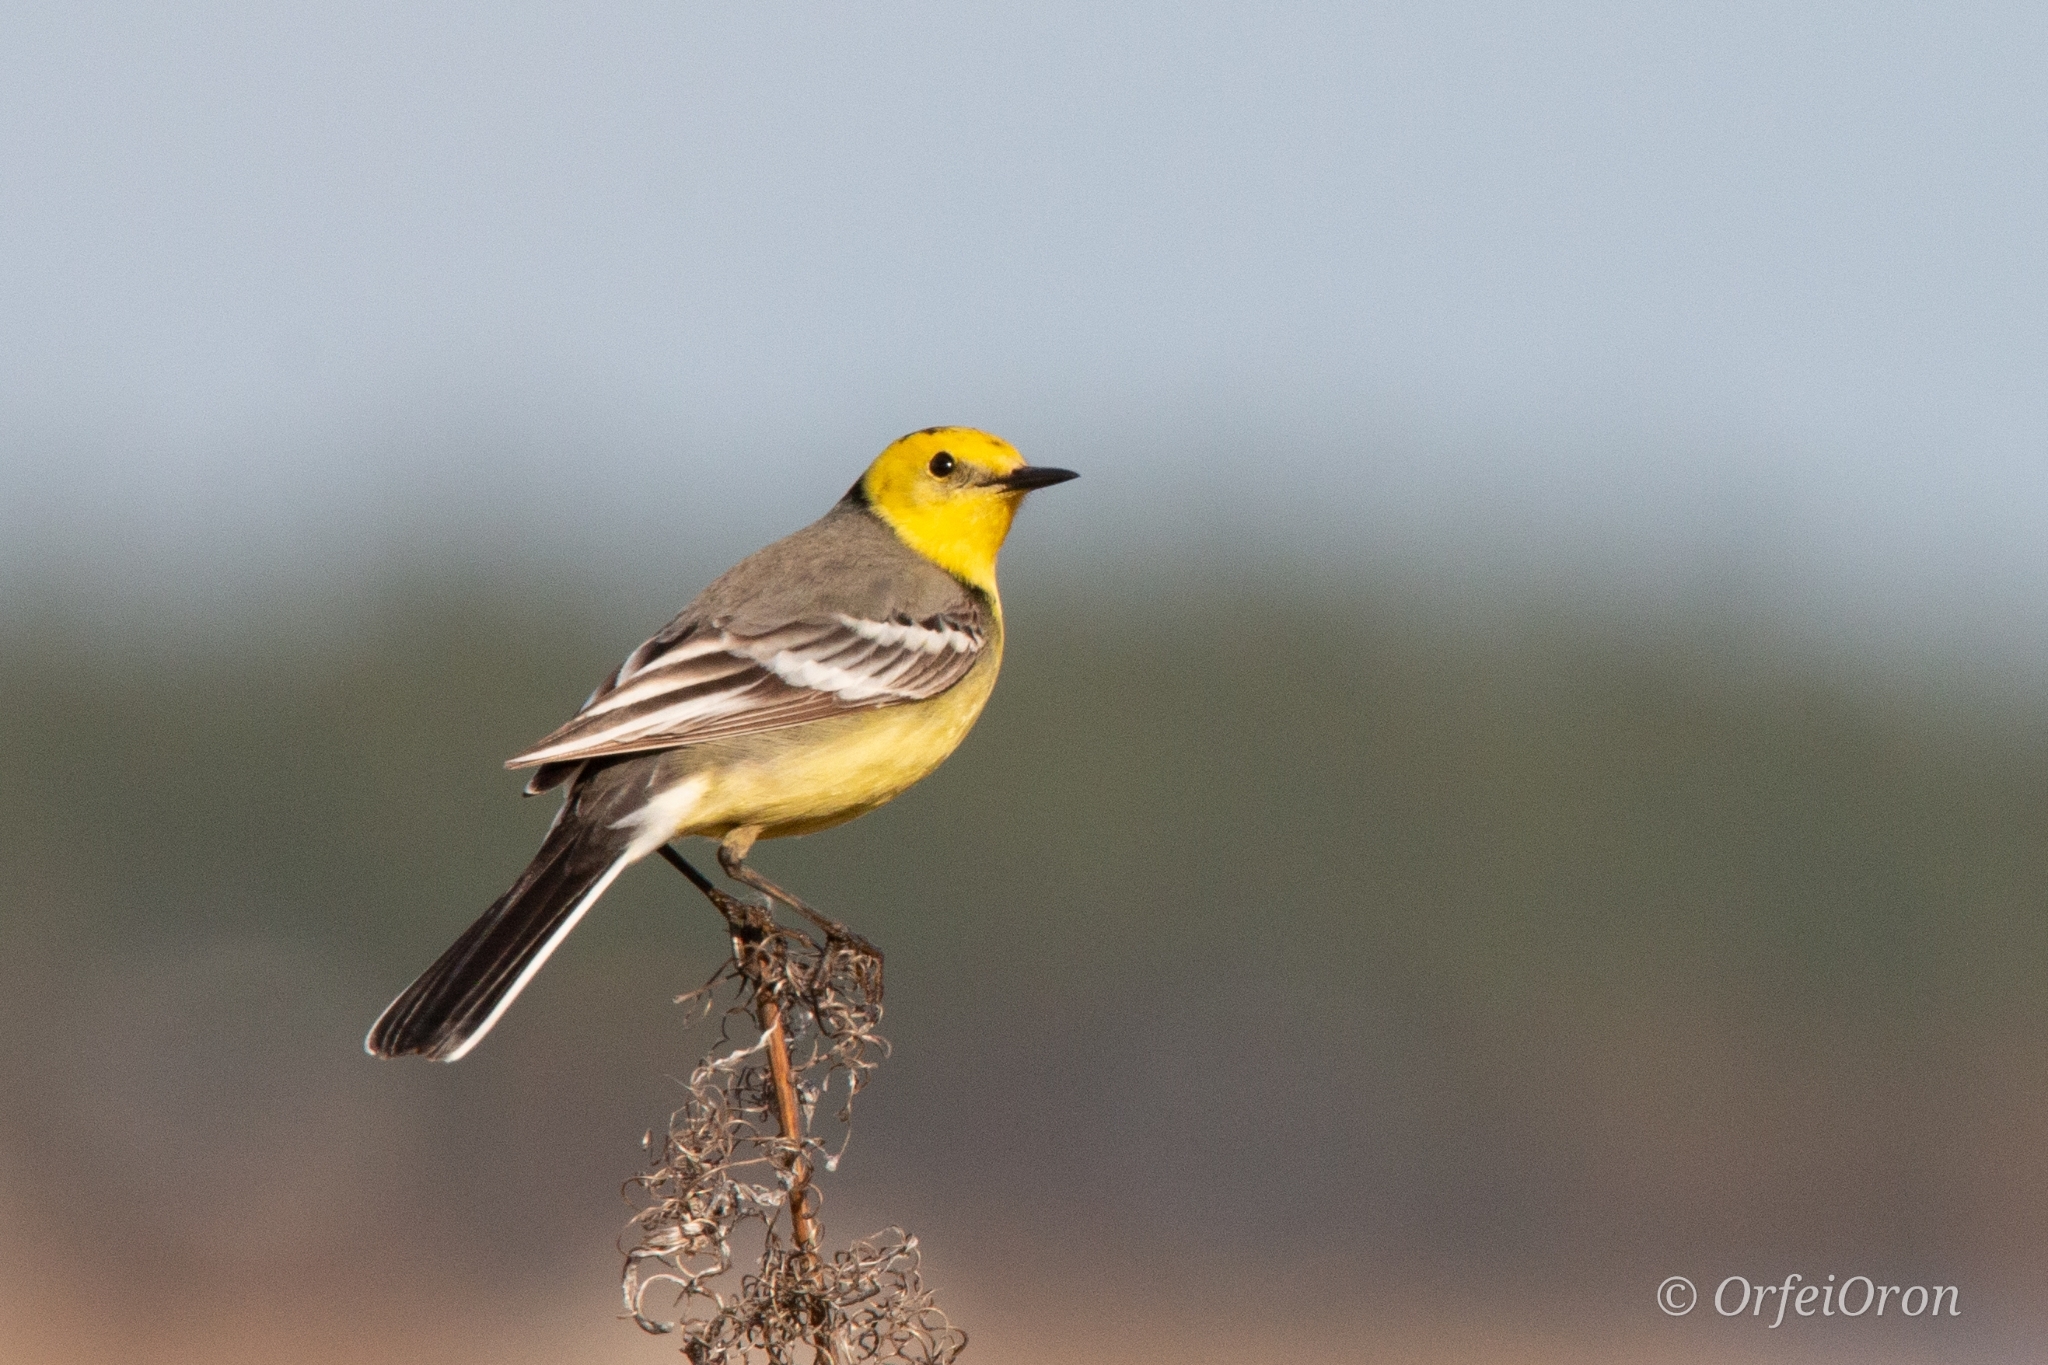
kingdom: Animalia
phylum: Chordata
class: Aves
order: Passeriformes
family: Motacillidae
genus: Motacilla
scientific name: Motacilla citreola
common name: Citrine wagtail
